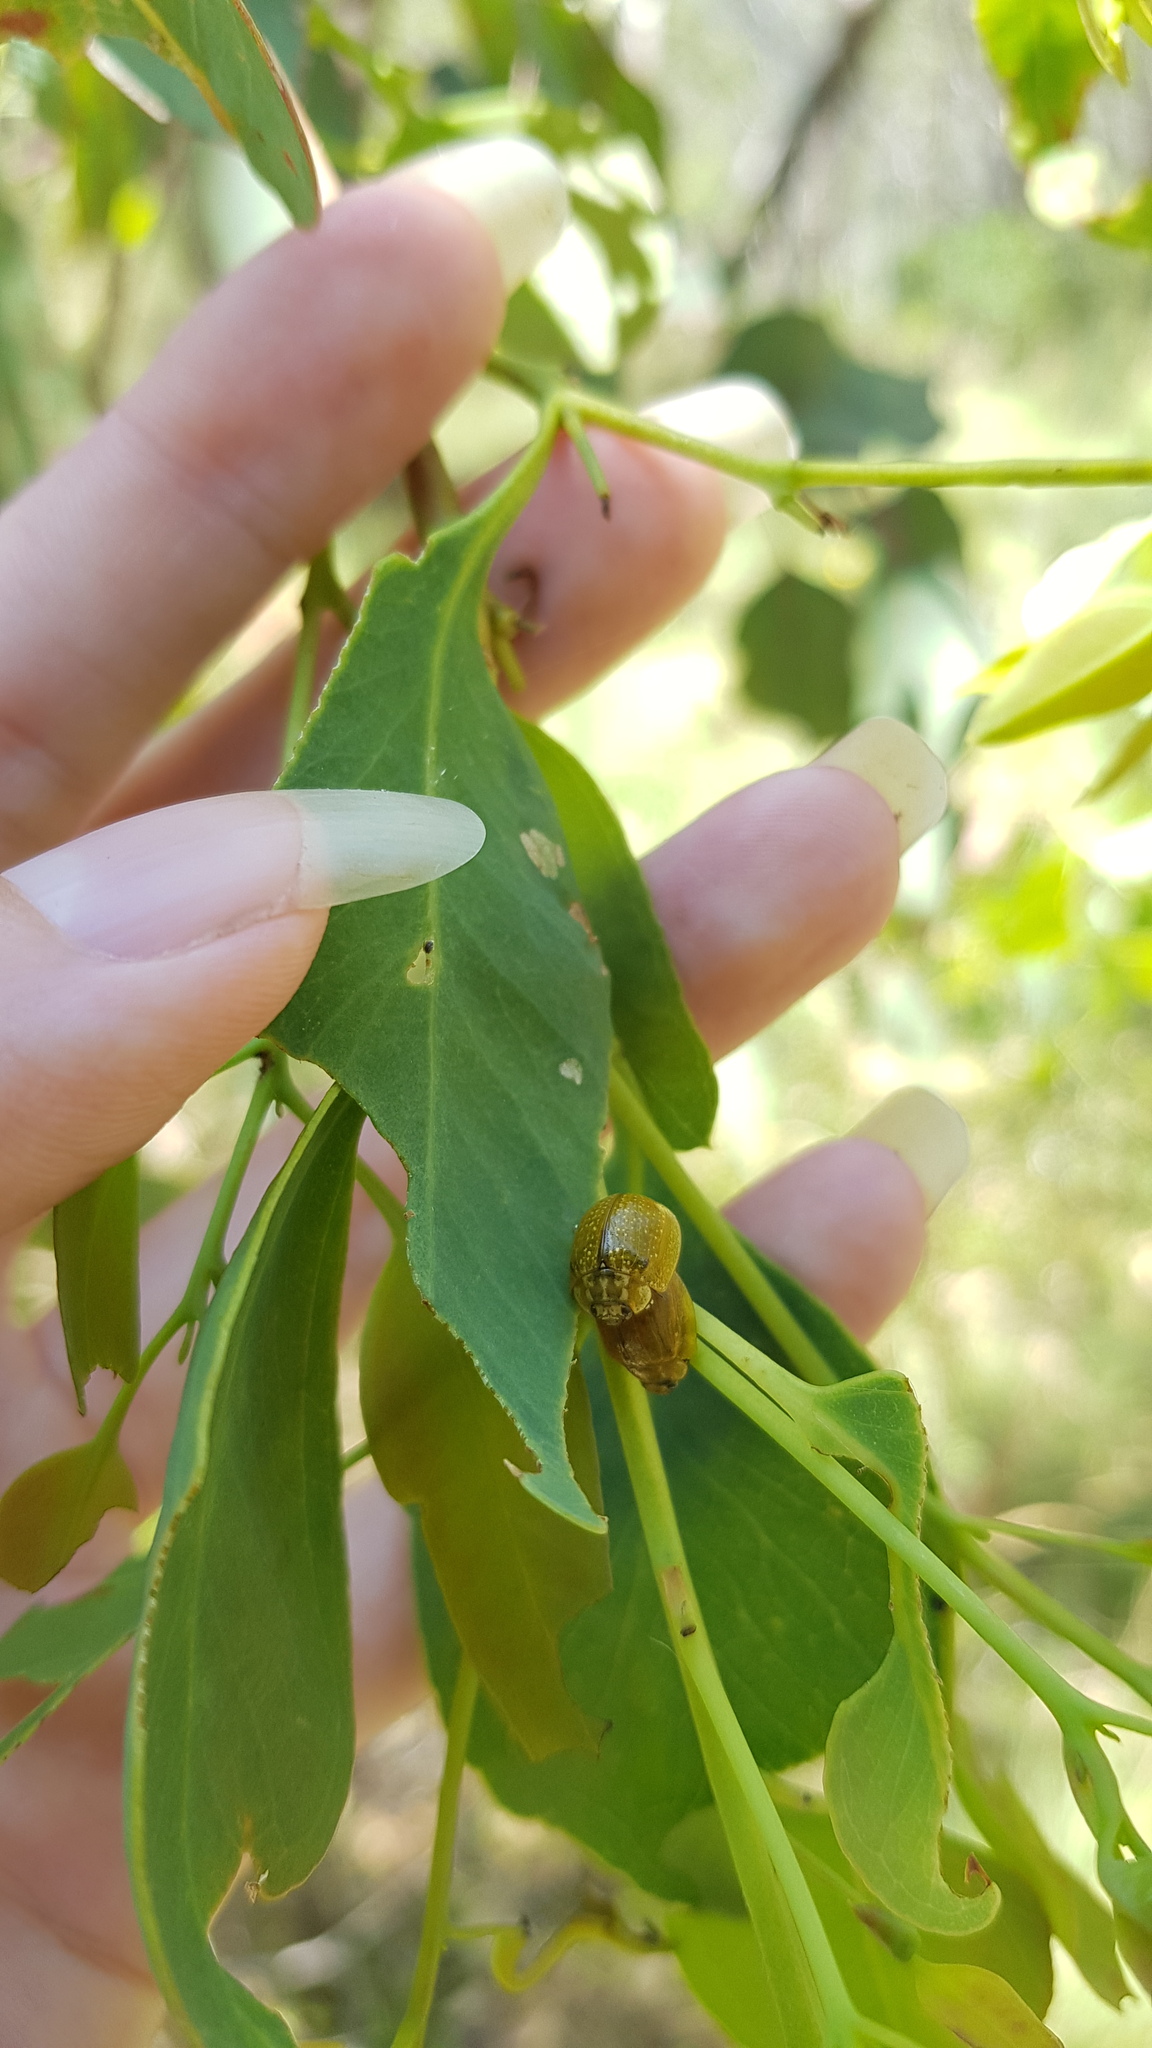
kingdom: Animalia
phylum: Arthropoda
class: Insecta
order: Coleoptera
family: Chrysomelidae
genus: Paropsisterna
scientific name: Paropsisterna cloelia
